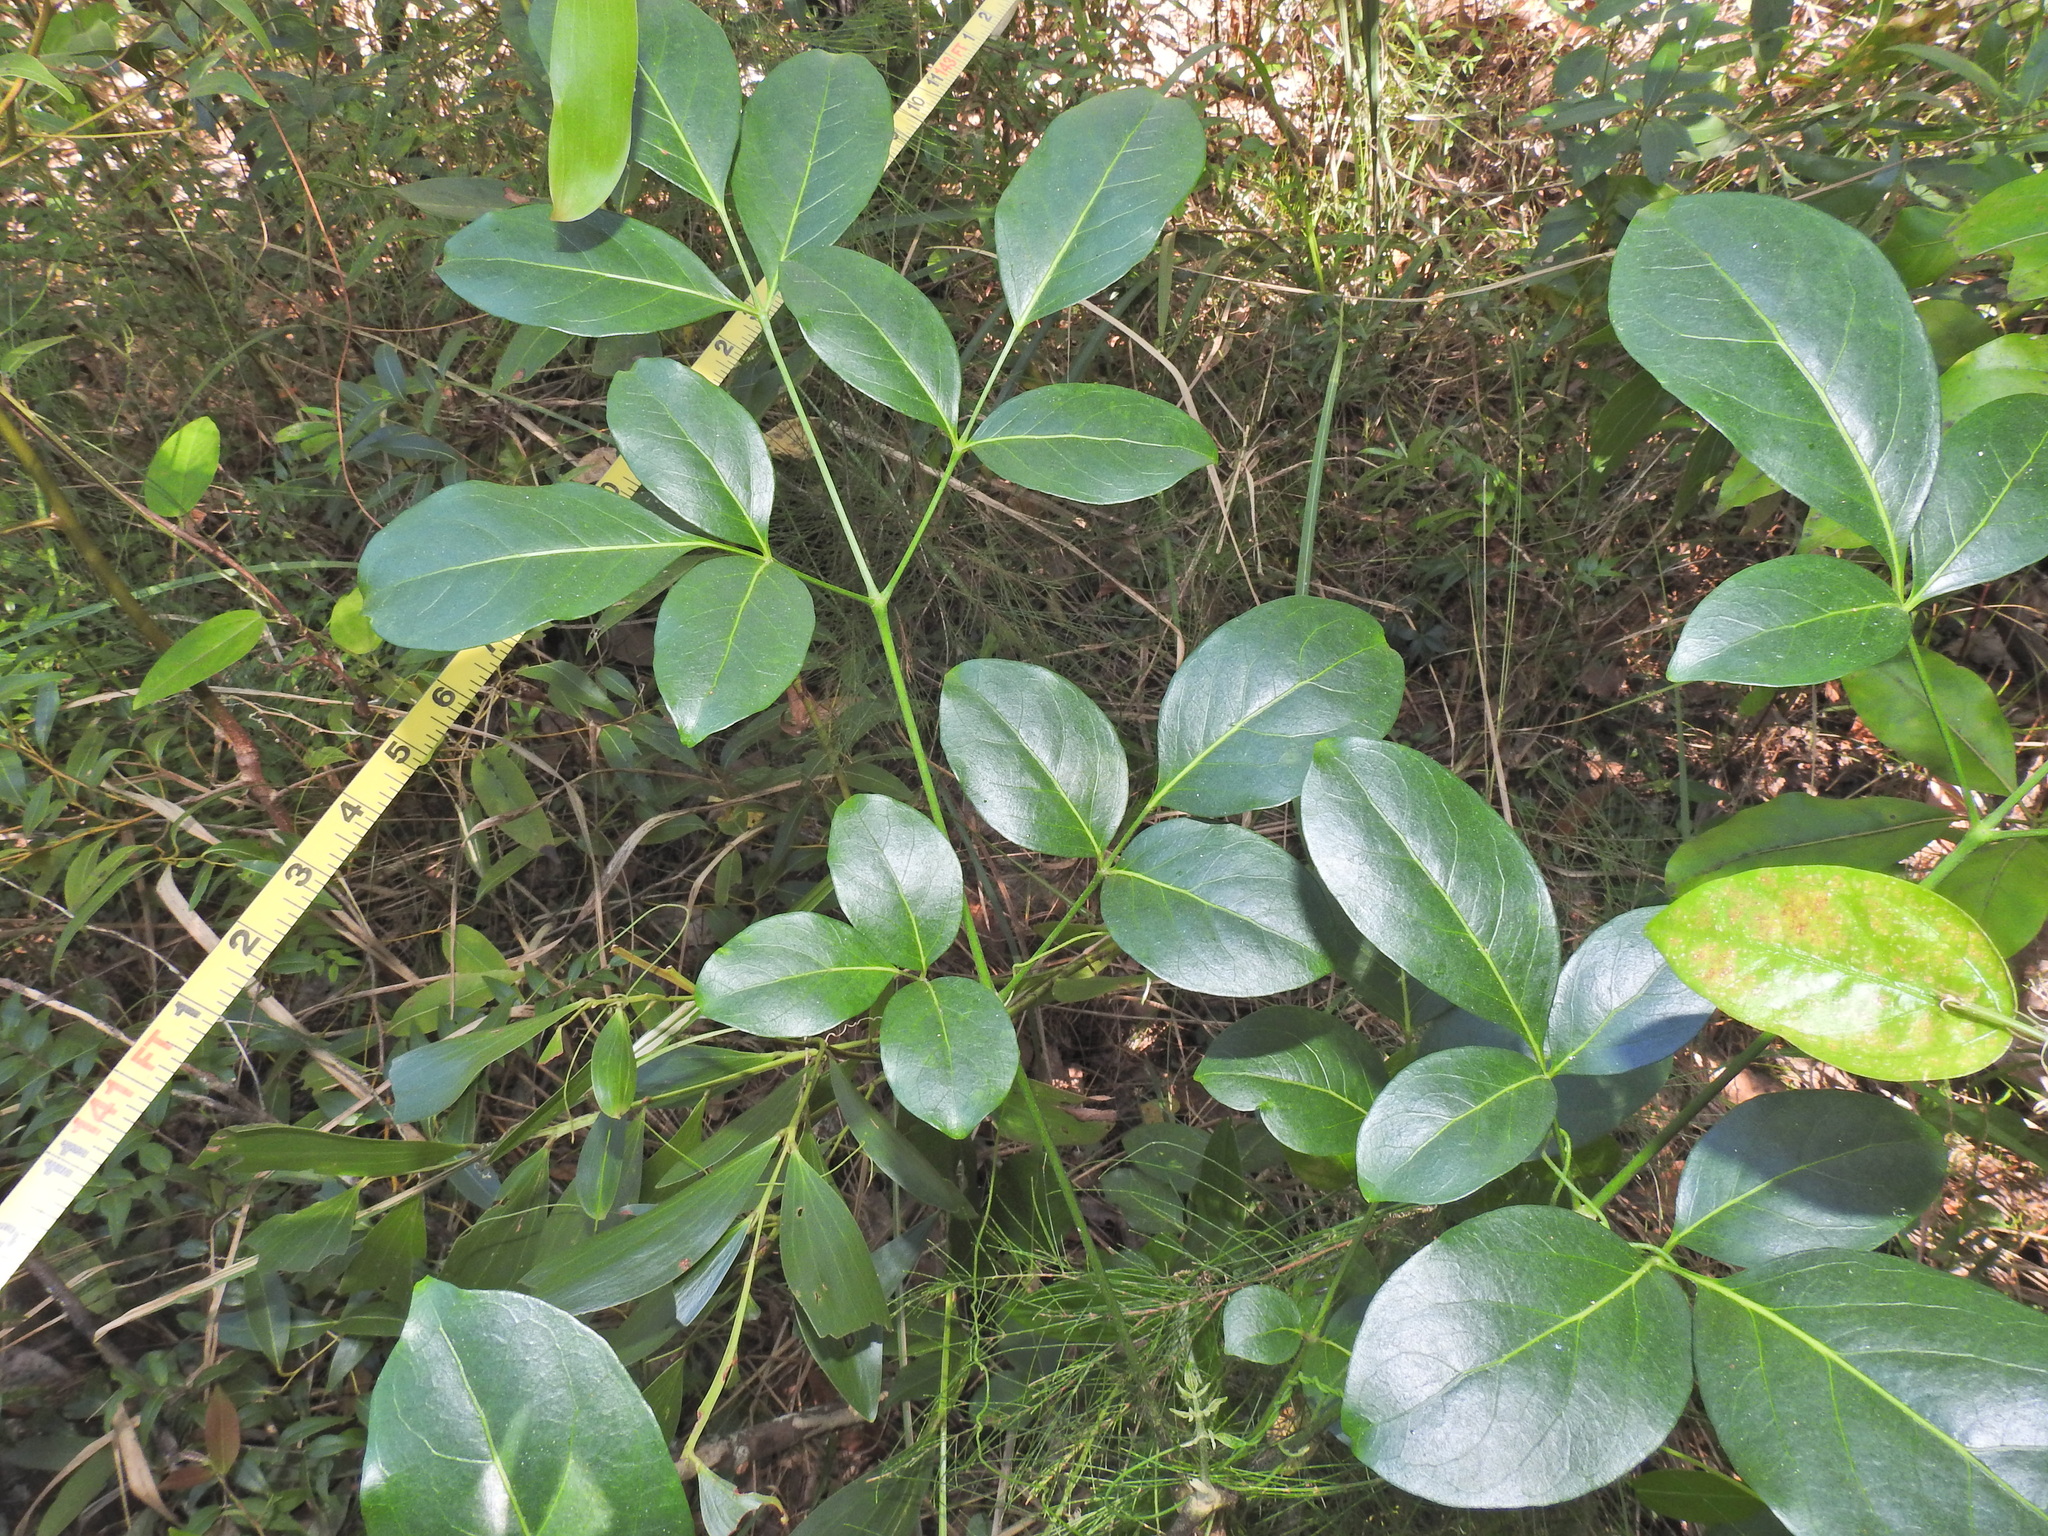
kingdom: Plantae
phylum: Tracheophyta
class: Magnoliopsida
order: Apiales
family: Araliaceae
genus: Polyscias
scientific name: Polyscias elegans
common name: Mowbulan whitewood
